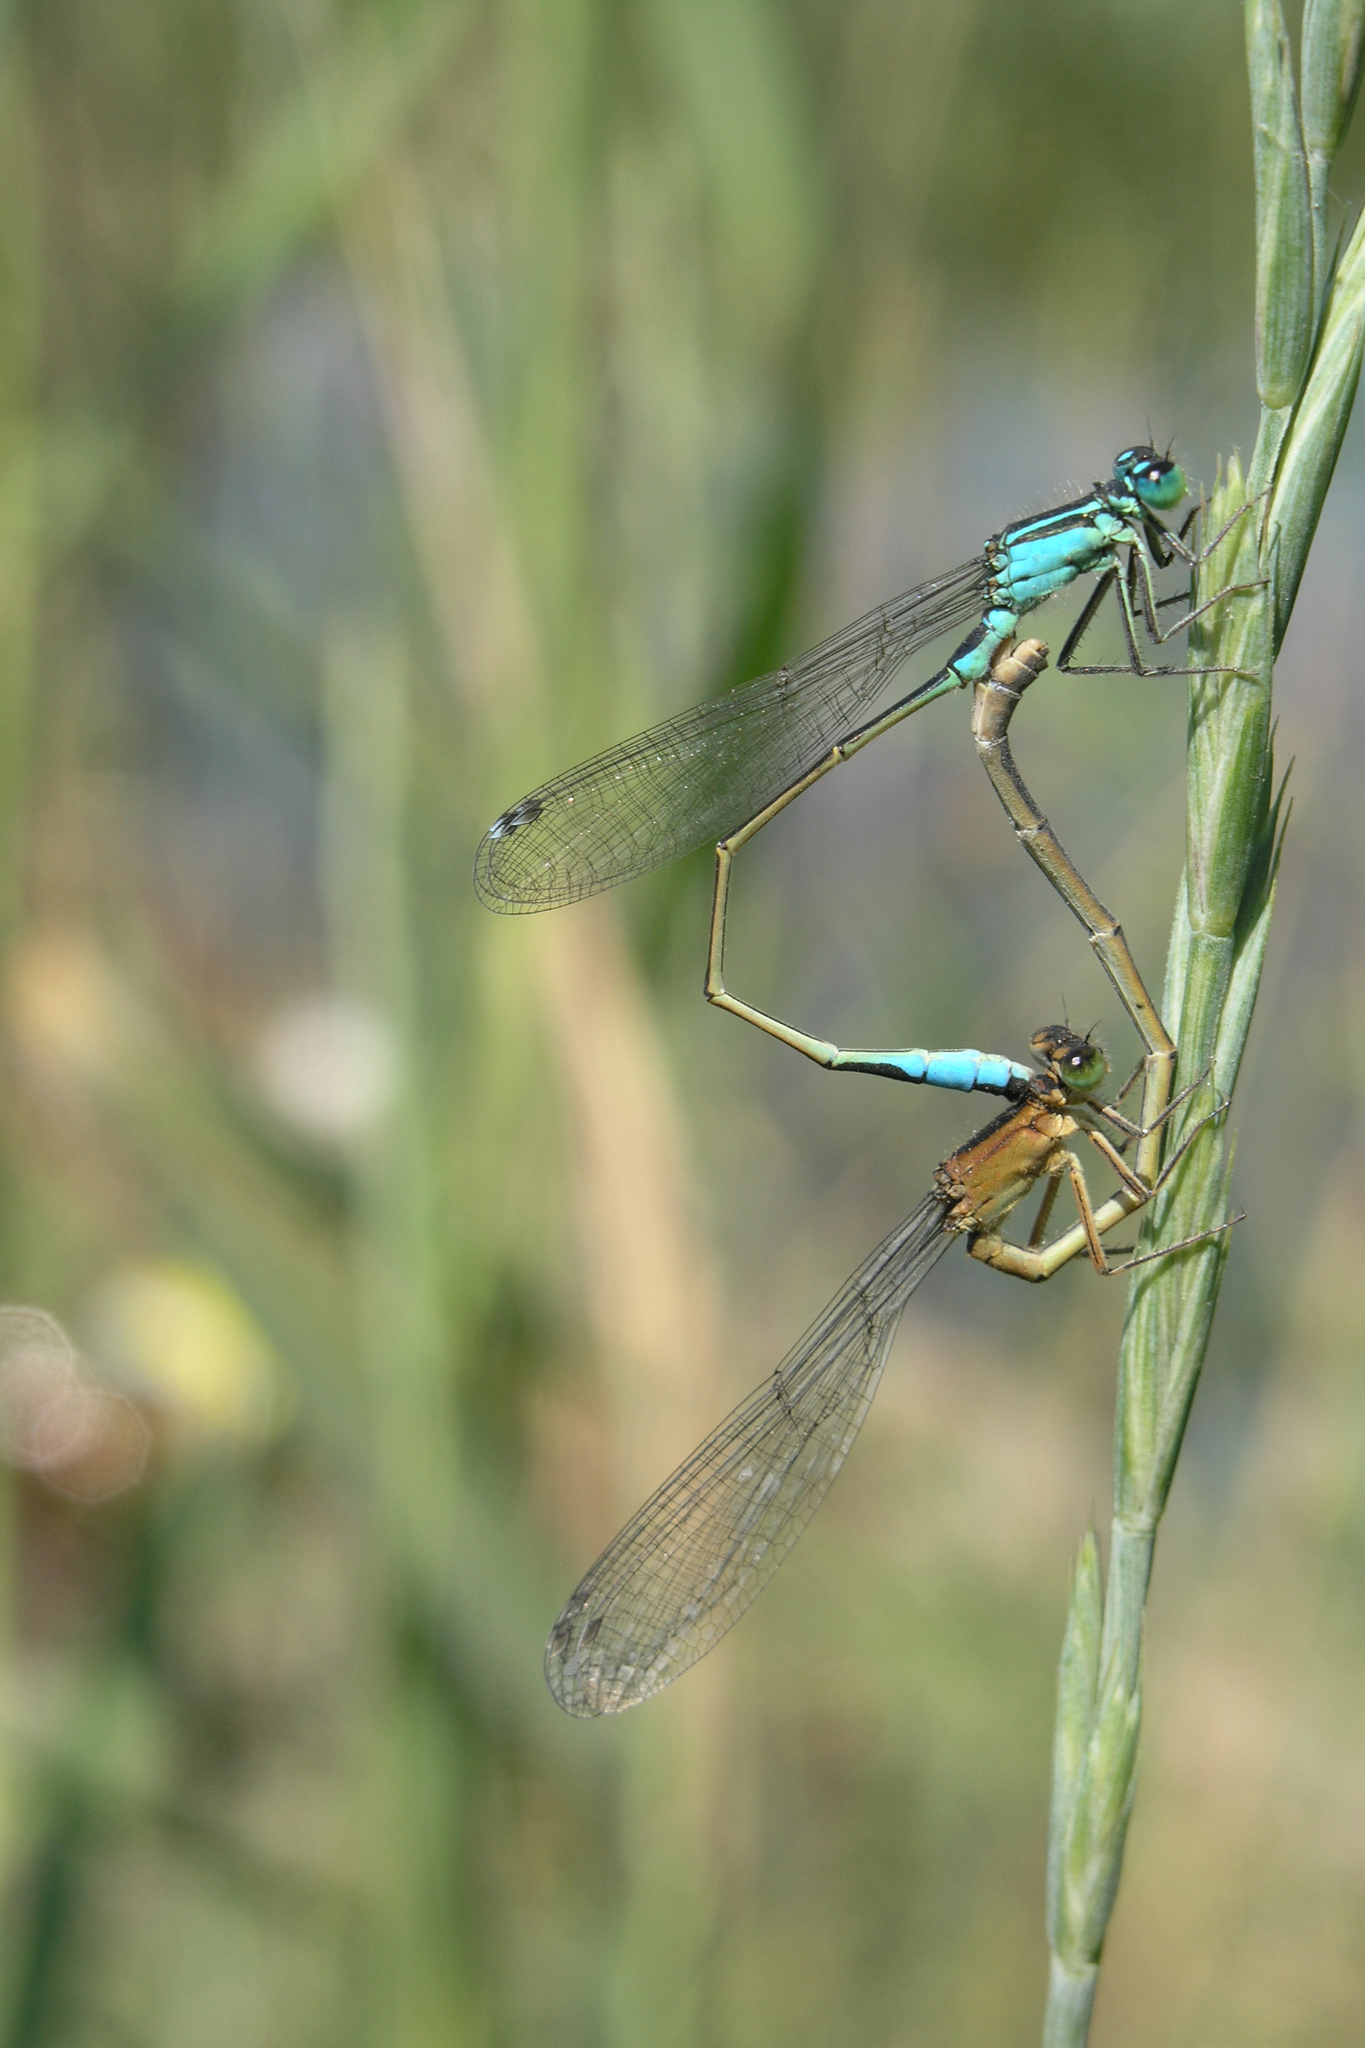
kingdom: Animalia
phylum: Arthropoda
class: Insecta
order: Odonata
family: Coenagrionidae
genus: Ischnura
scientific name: Ischnura elegans
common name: Blue-tailed damselfly
